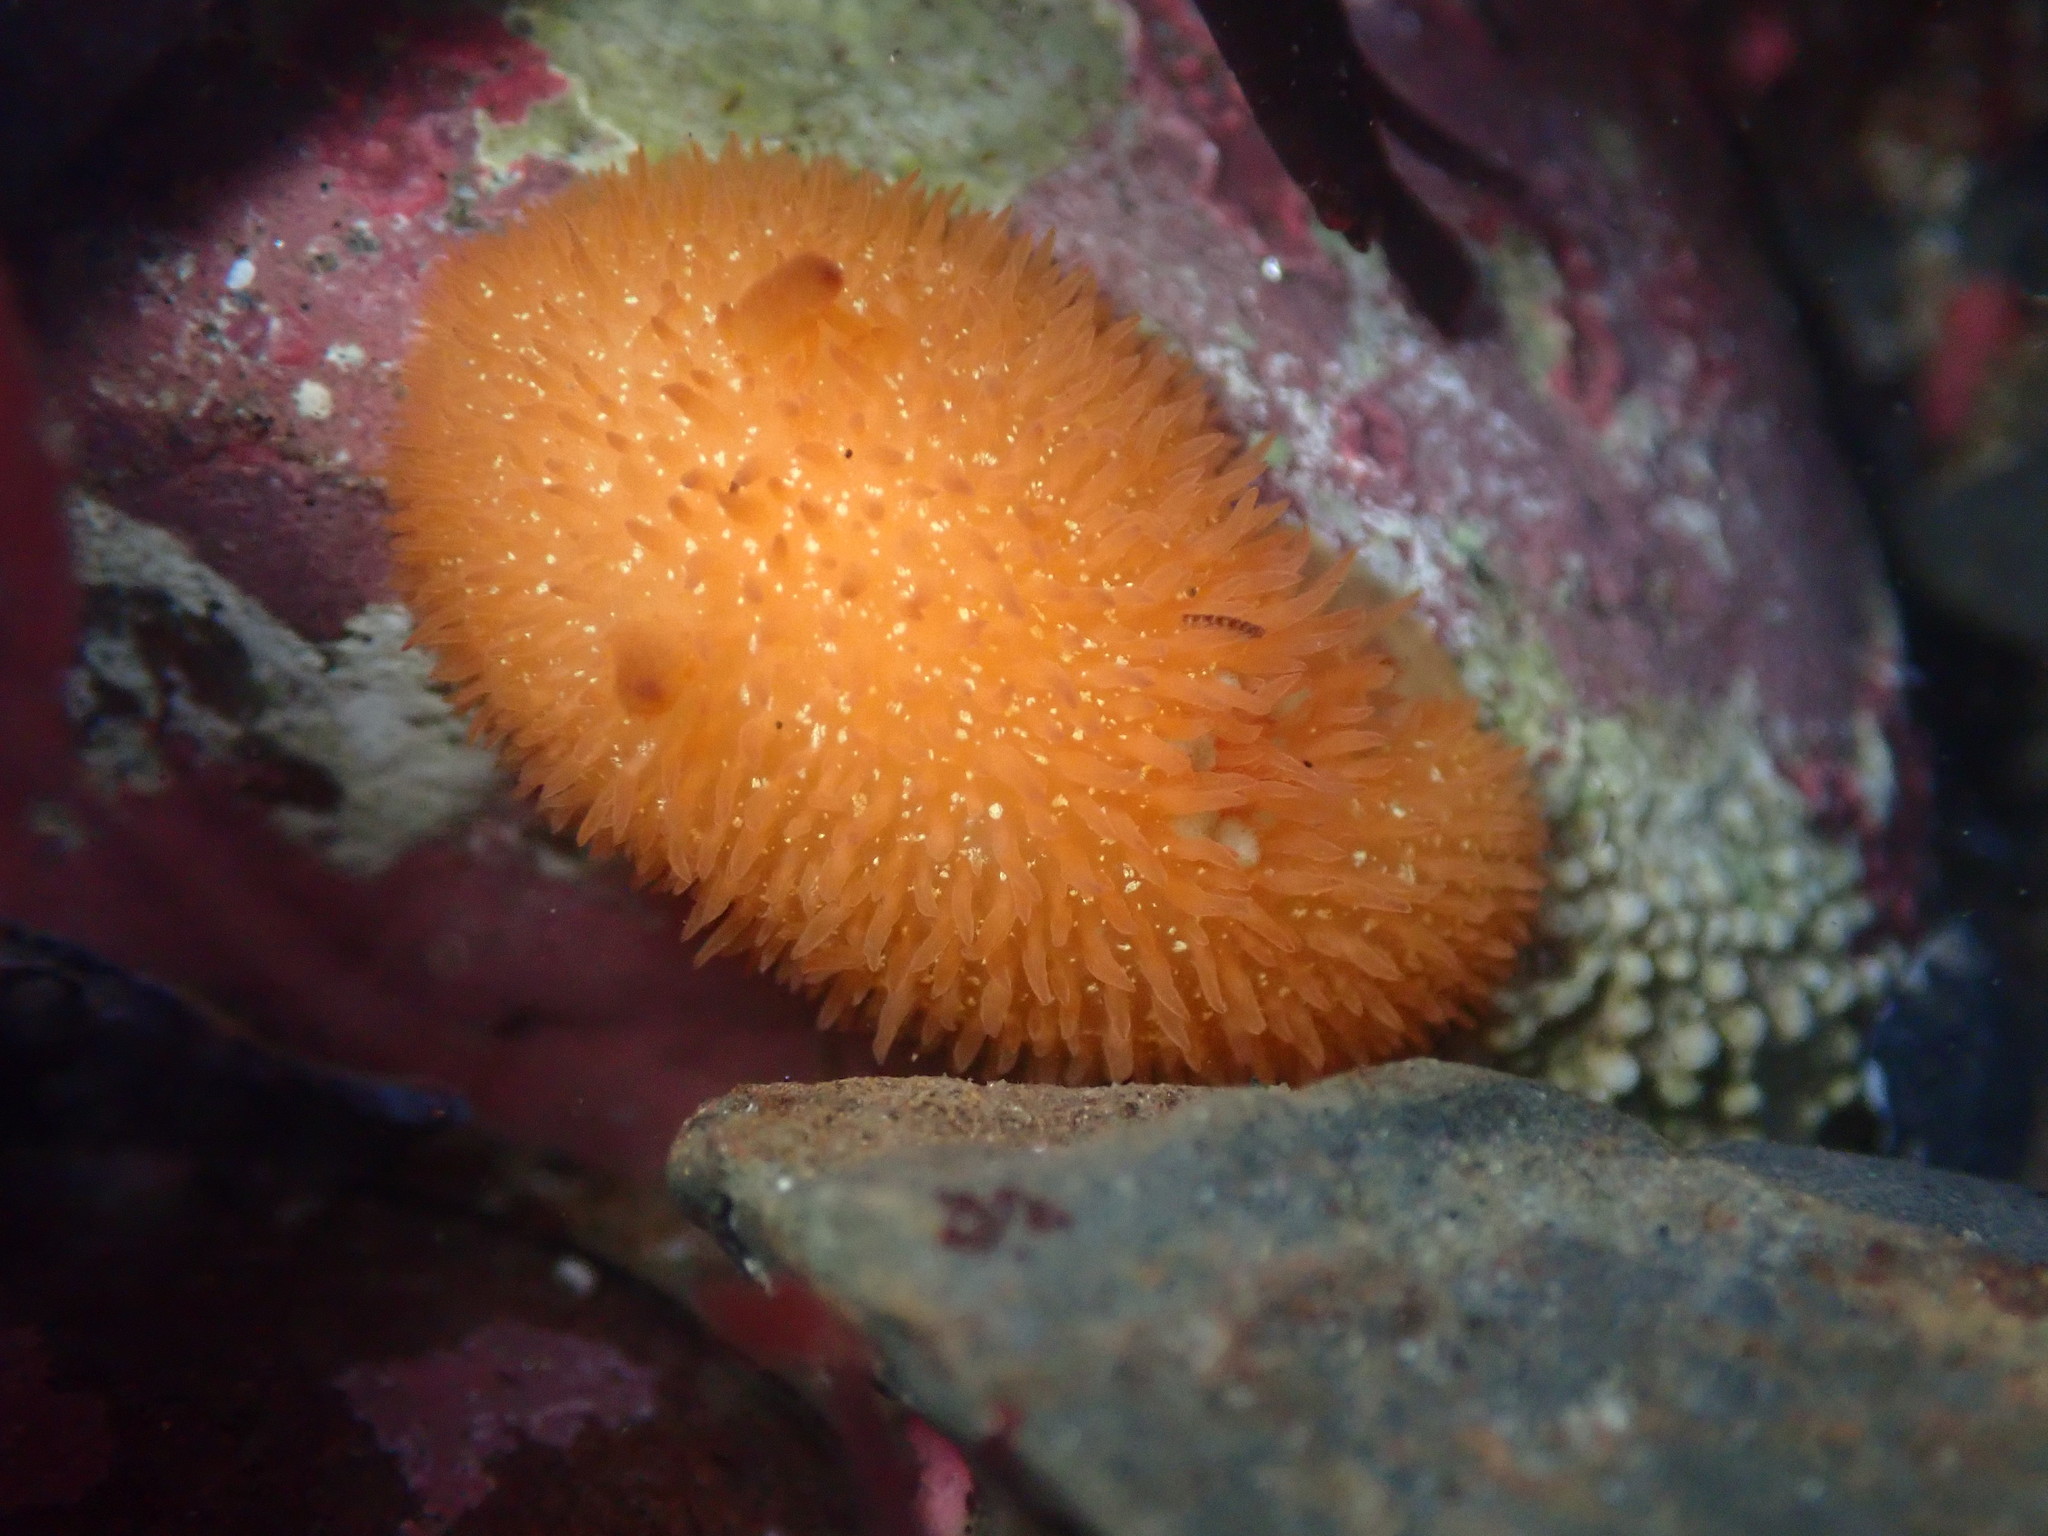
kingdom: Animalia
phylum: Mollusca
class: Gastropoda
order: Nudibranchia
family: Onchidorididae
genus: Acanthodoris
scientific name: Acanthodoris lutea
